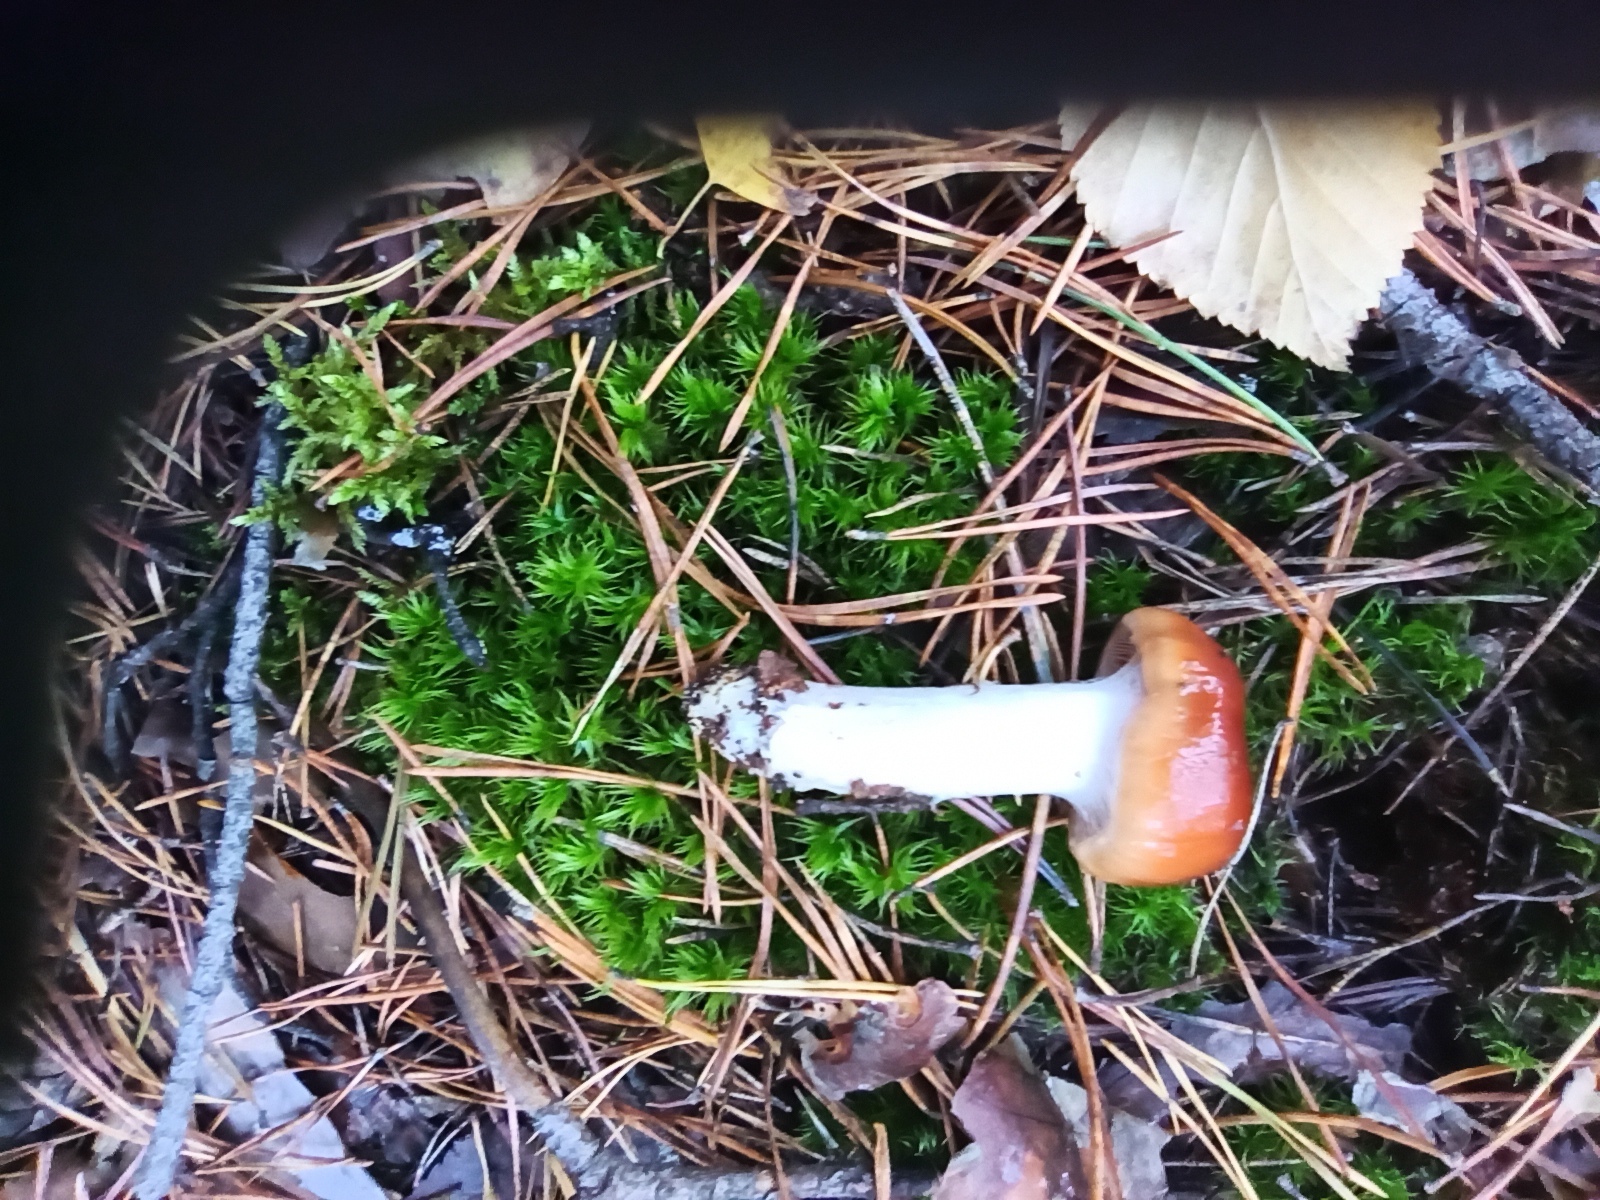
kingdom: Fungi
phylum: Basidiomycota
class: Agaricomycetes
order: Agaricales
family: Cortinariaceae
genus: Cortinarius
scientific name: Cortinarius mucosus
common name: Orange webcap
